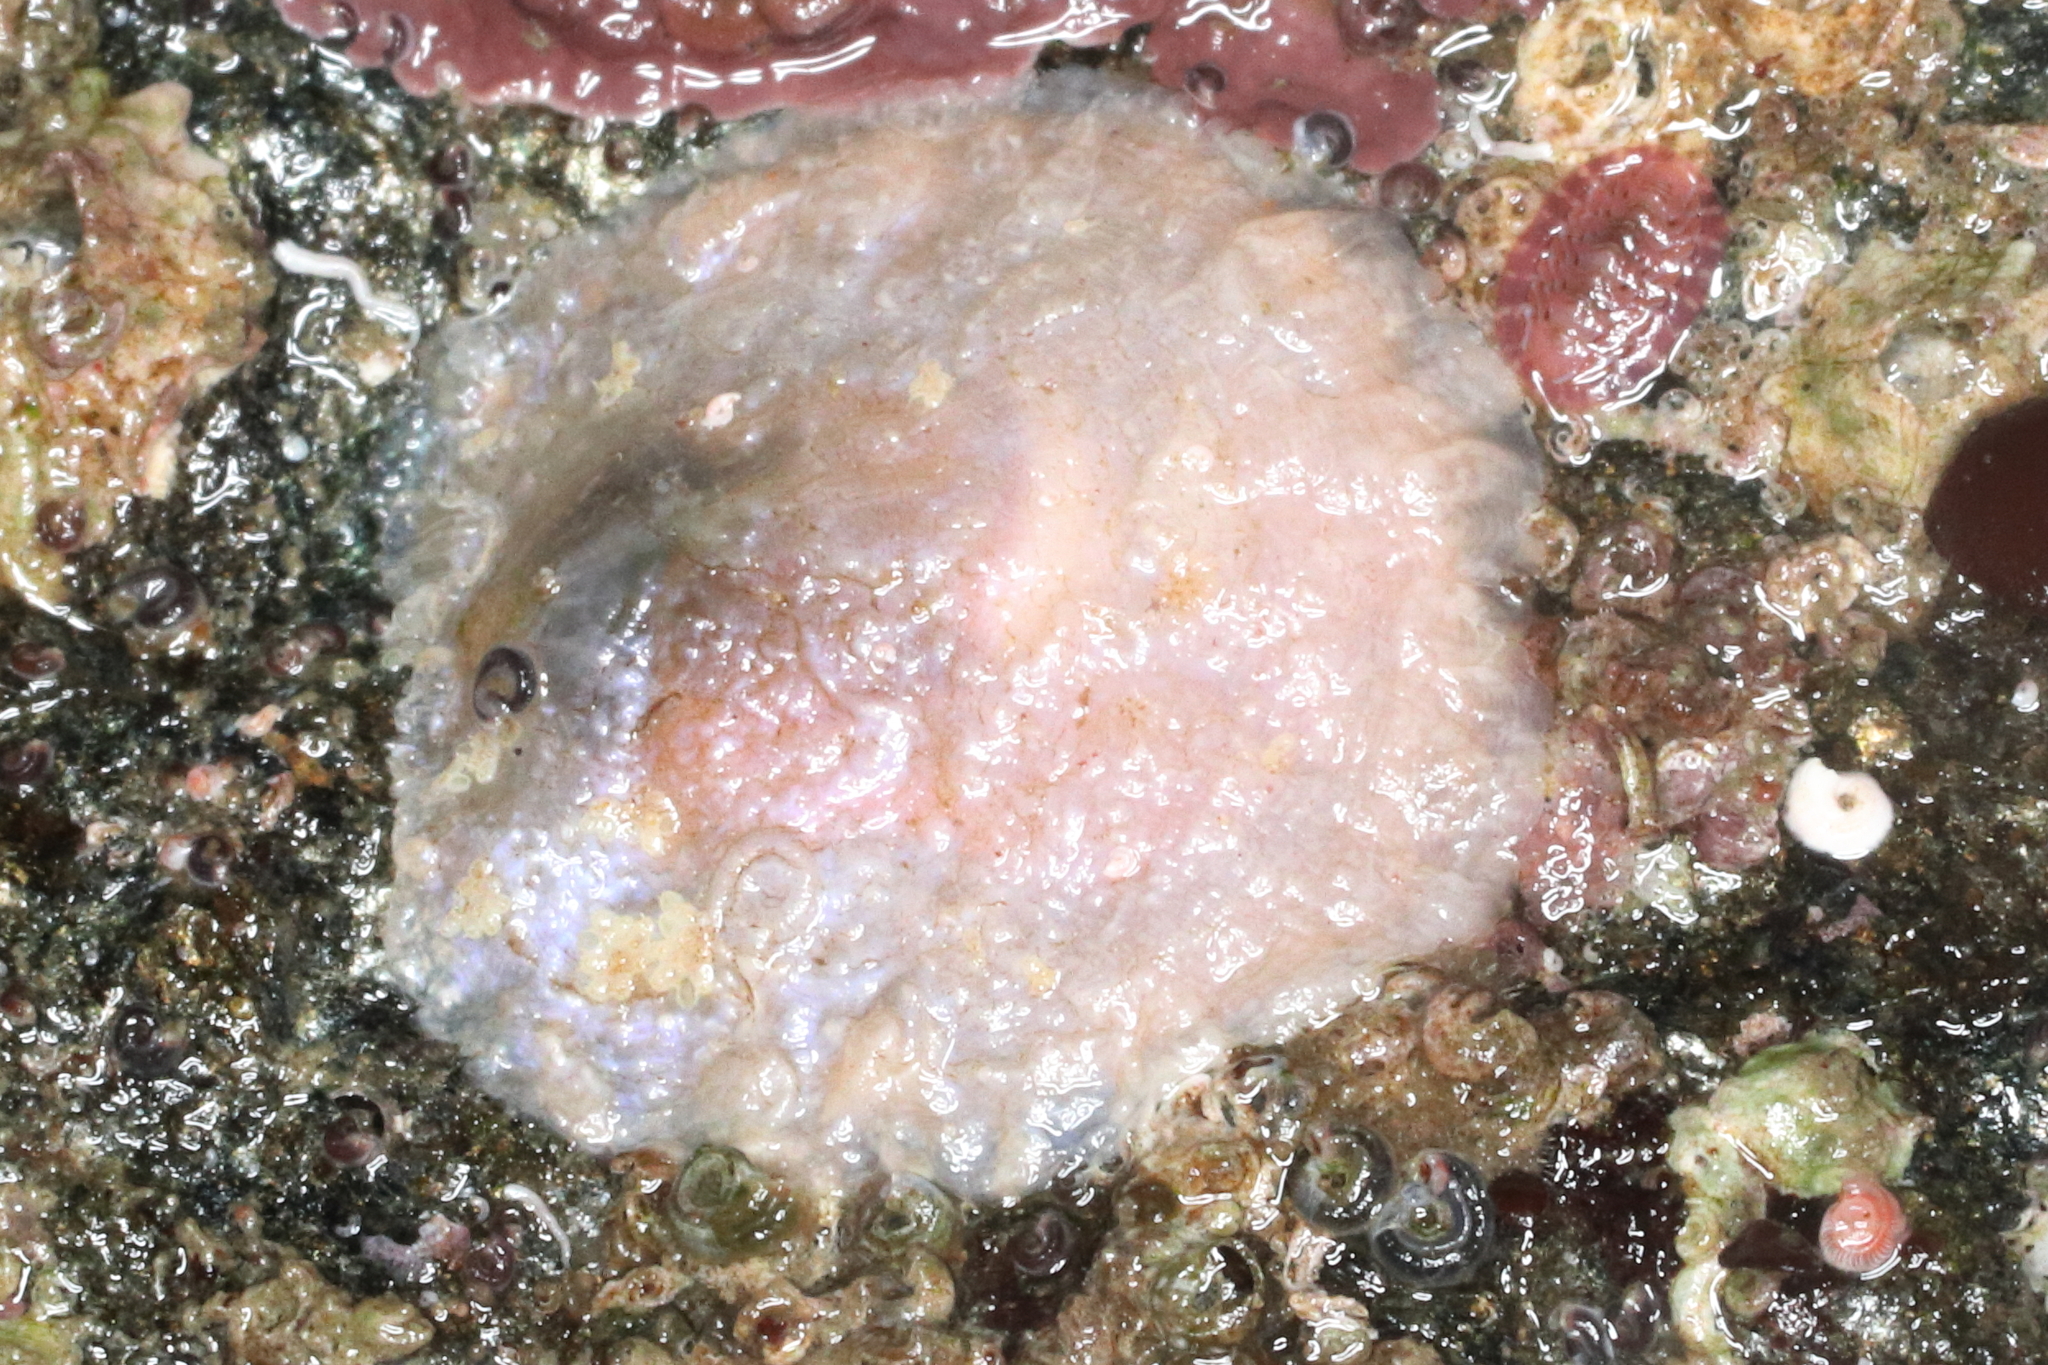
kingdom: Animalia
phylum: Mollusca
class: Bivalvia
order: Pectinida
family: Anomiidae
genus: Pododesmus
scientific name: Pododesmus macrochisma
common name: Alaska jingle
